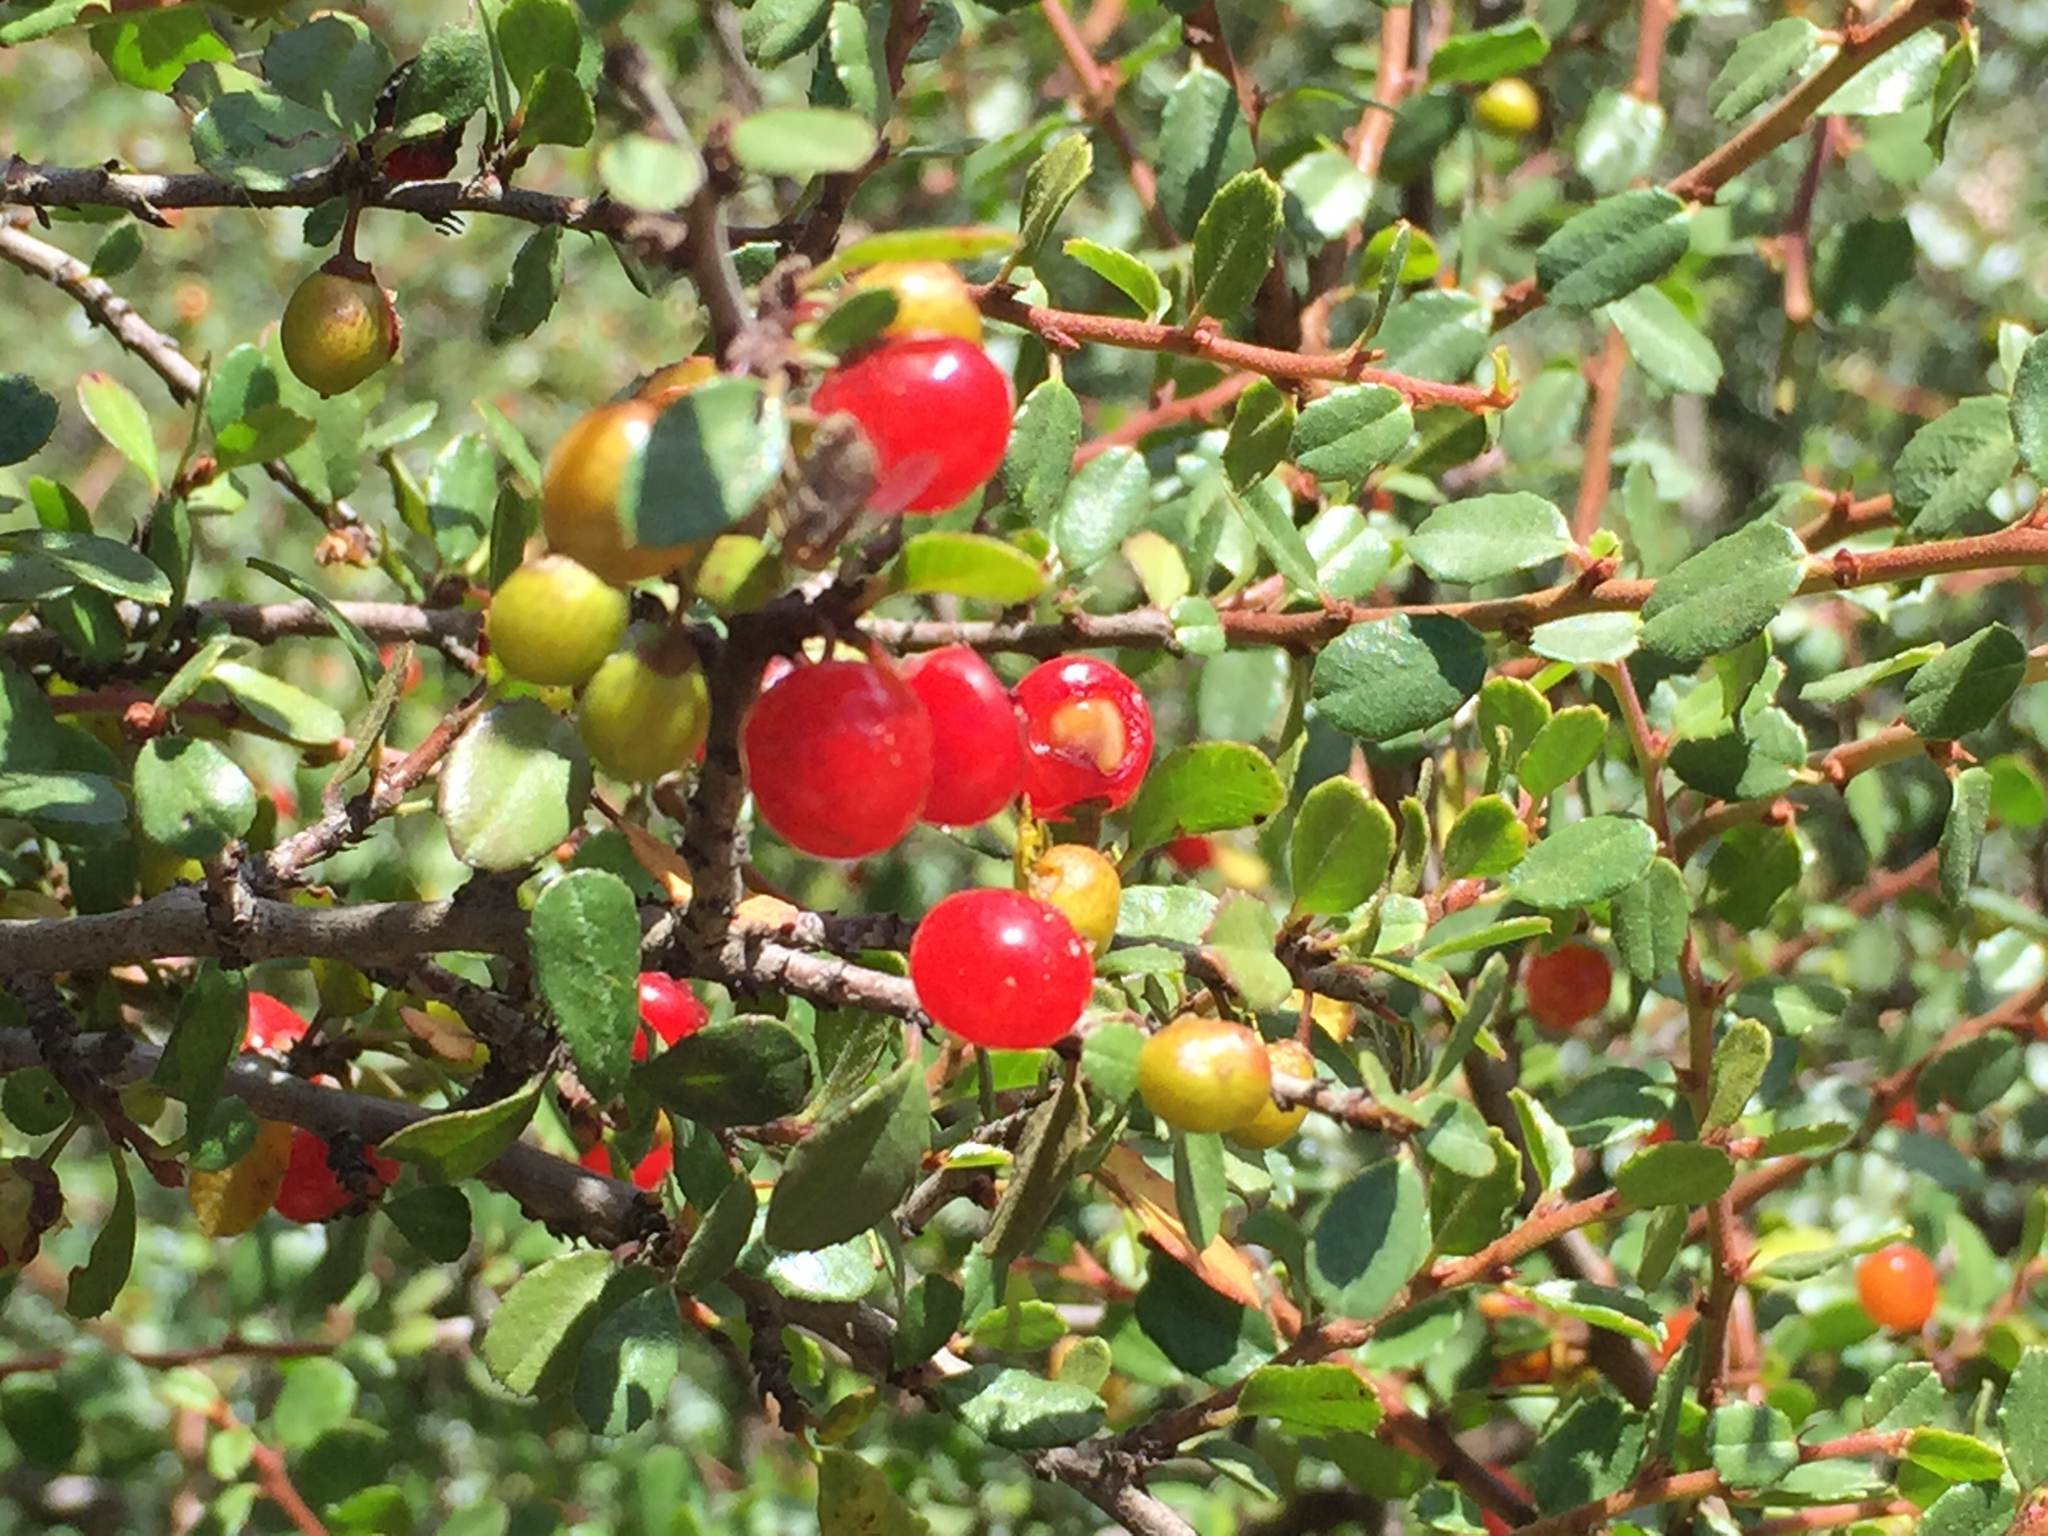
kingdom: Plantae
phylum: Tracheophyta
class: Magnoliopsida
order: Rosales
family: Rhamnaceae
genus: Endotropis
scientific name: Endotropis crocea
